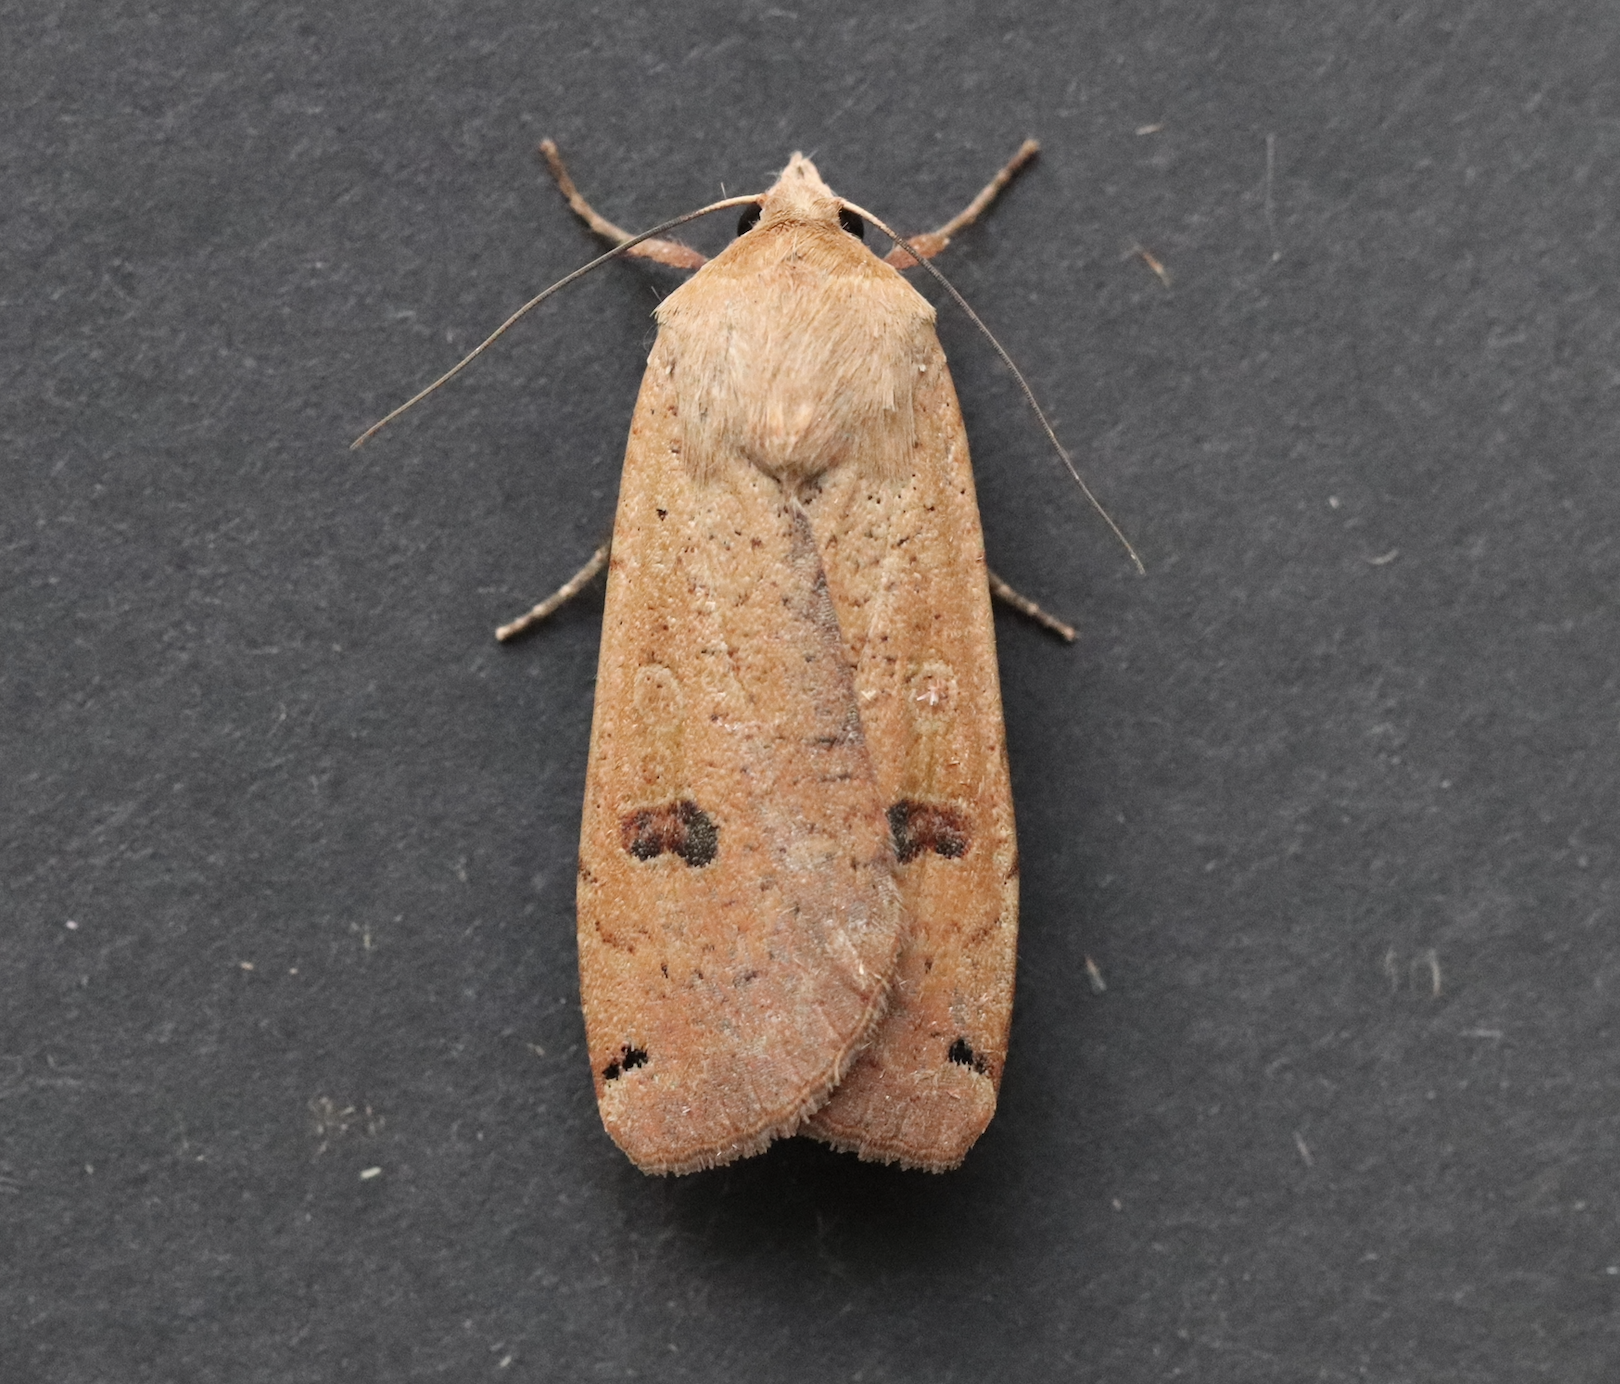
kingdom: Animalia
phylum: Arthropoda
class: Insecta
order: Lepidoptera
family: Noctuidae
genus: Noctua
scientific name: Noctua pronuba
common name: Large yellow underwing
